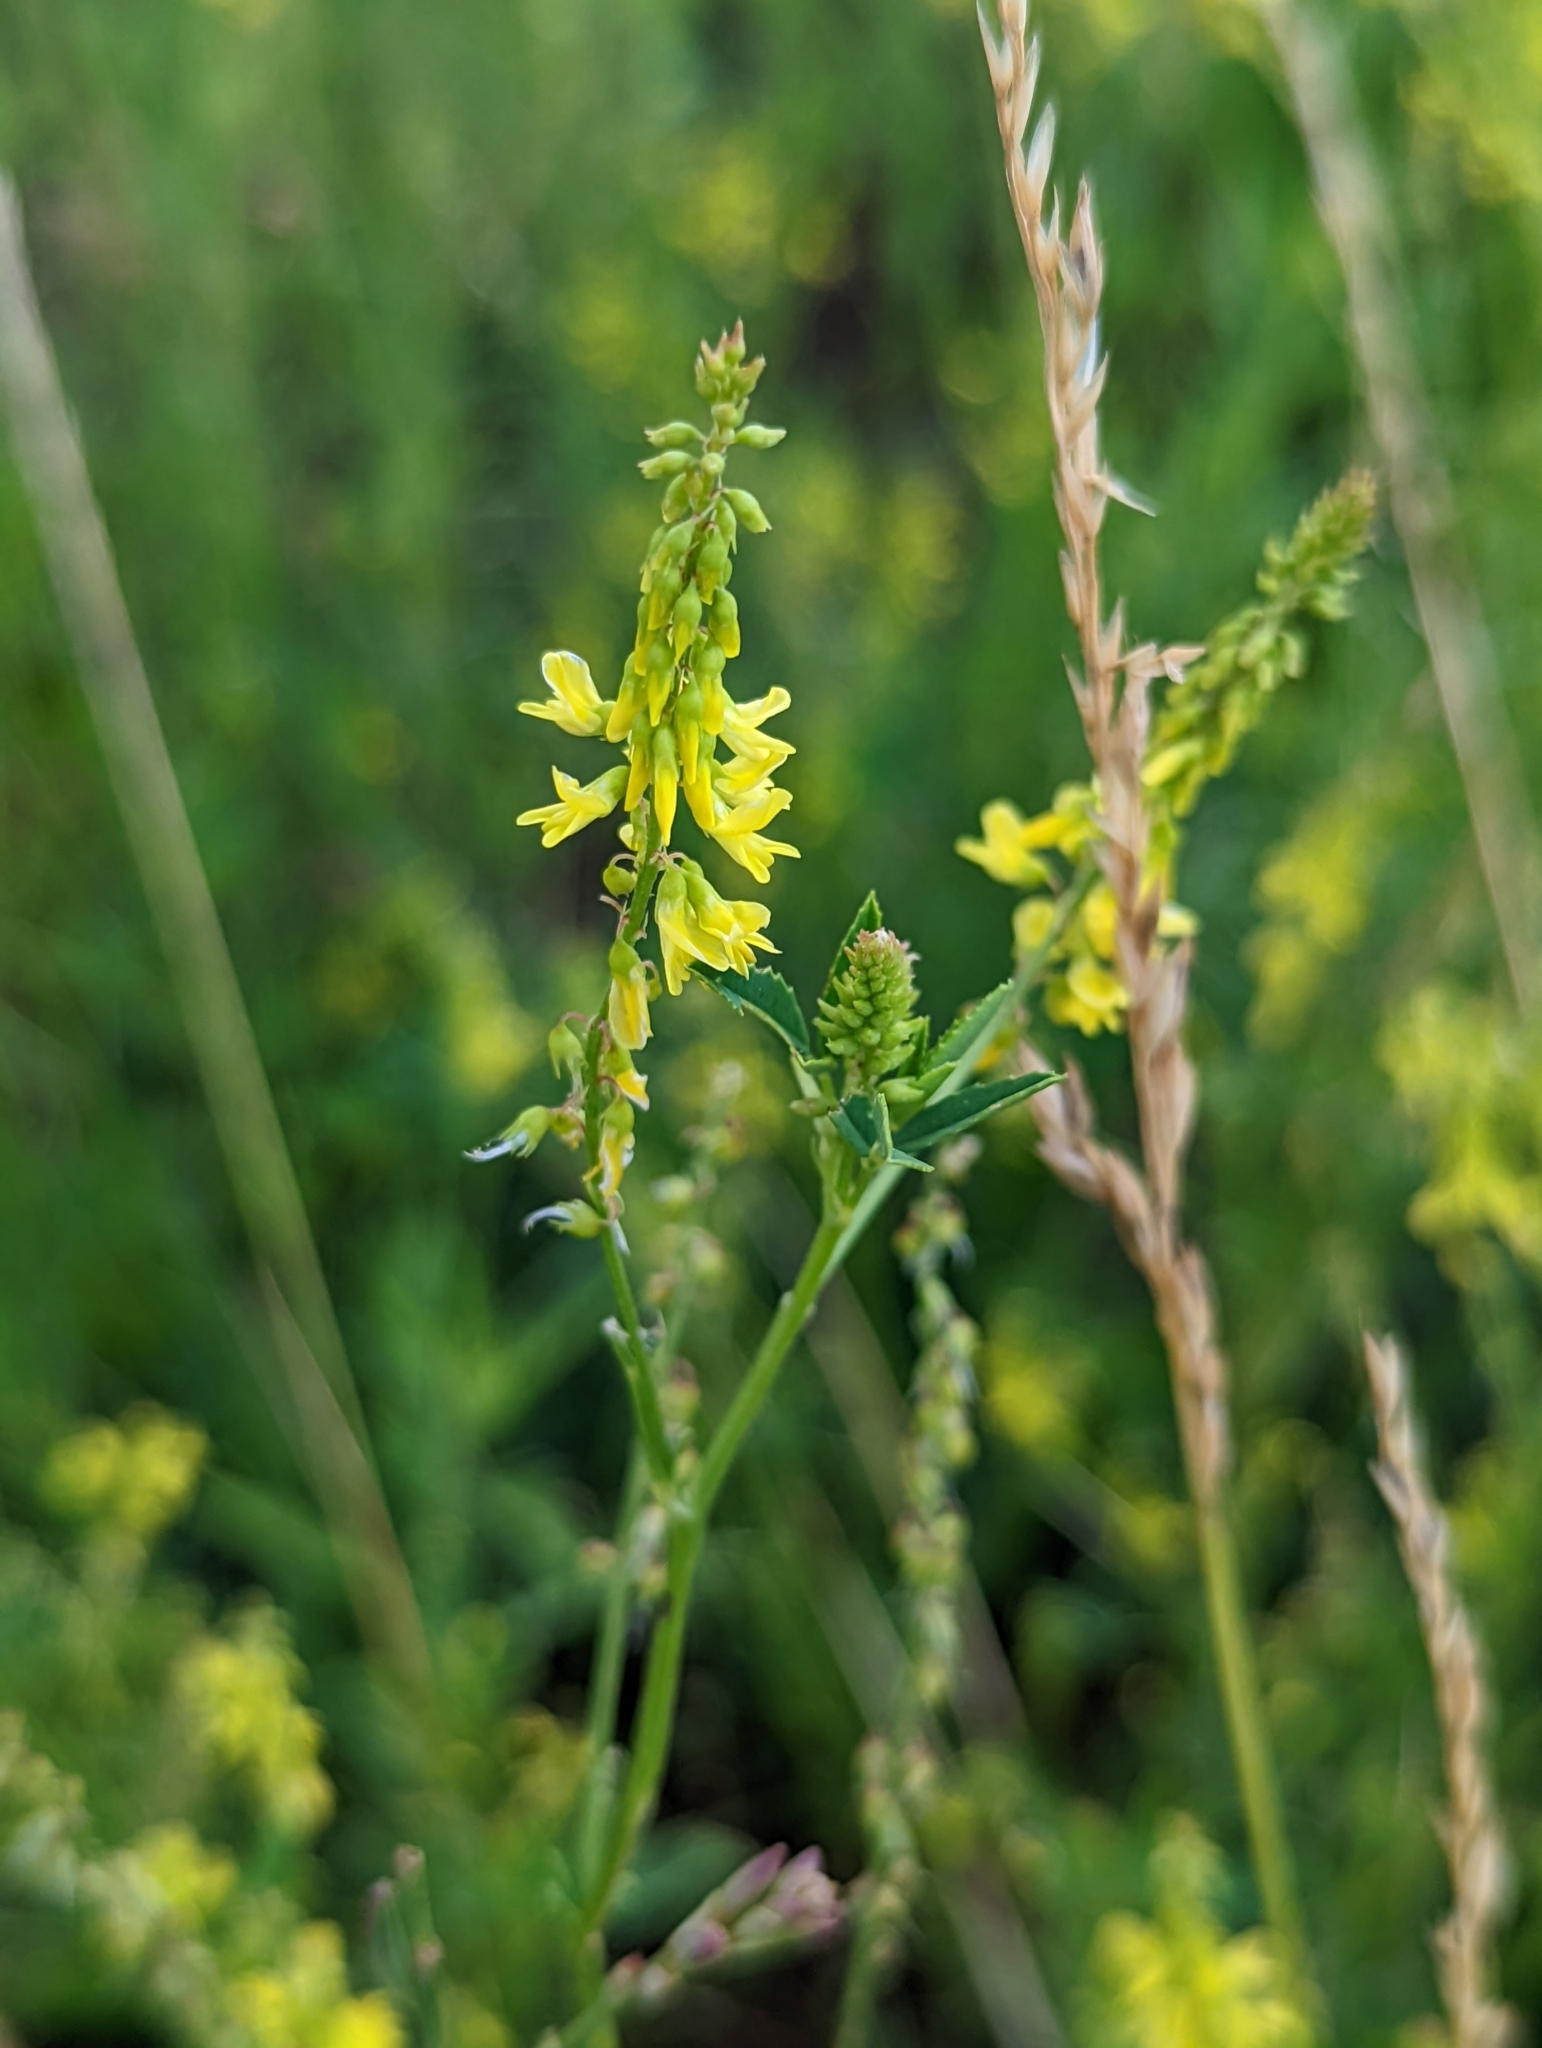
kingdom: Plantae
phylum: Tracheophyta
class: Magnoliopsida
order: Fabales
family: Fabaceae
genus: Melilotus
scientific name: Melilotus officinalis
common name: Sweetclover
